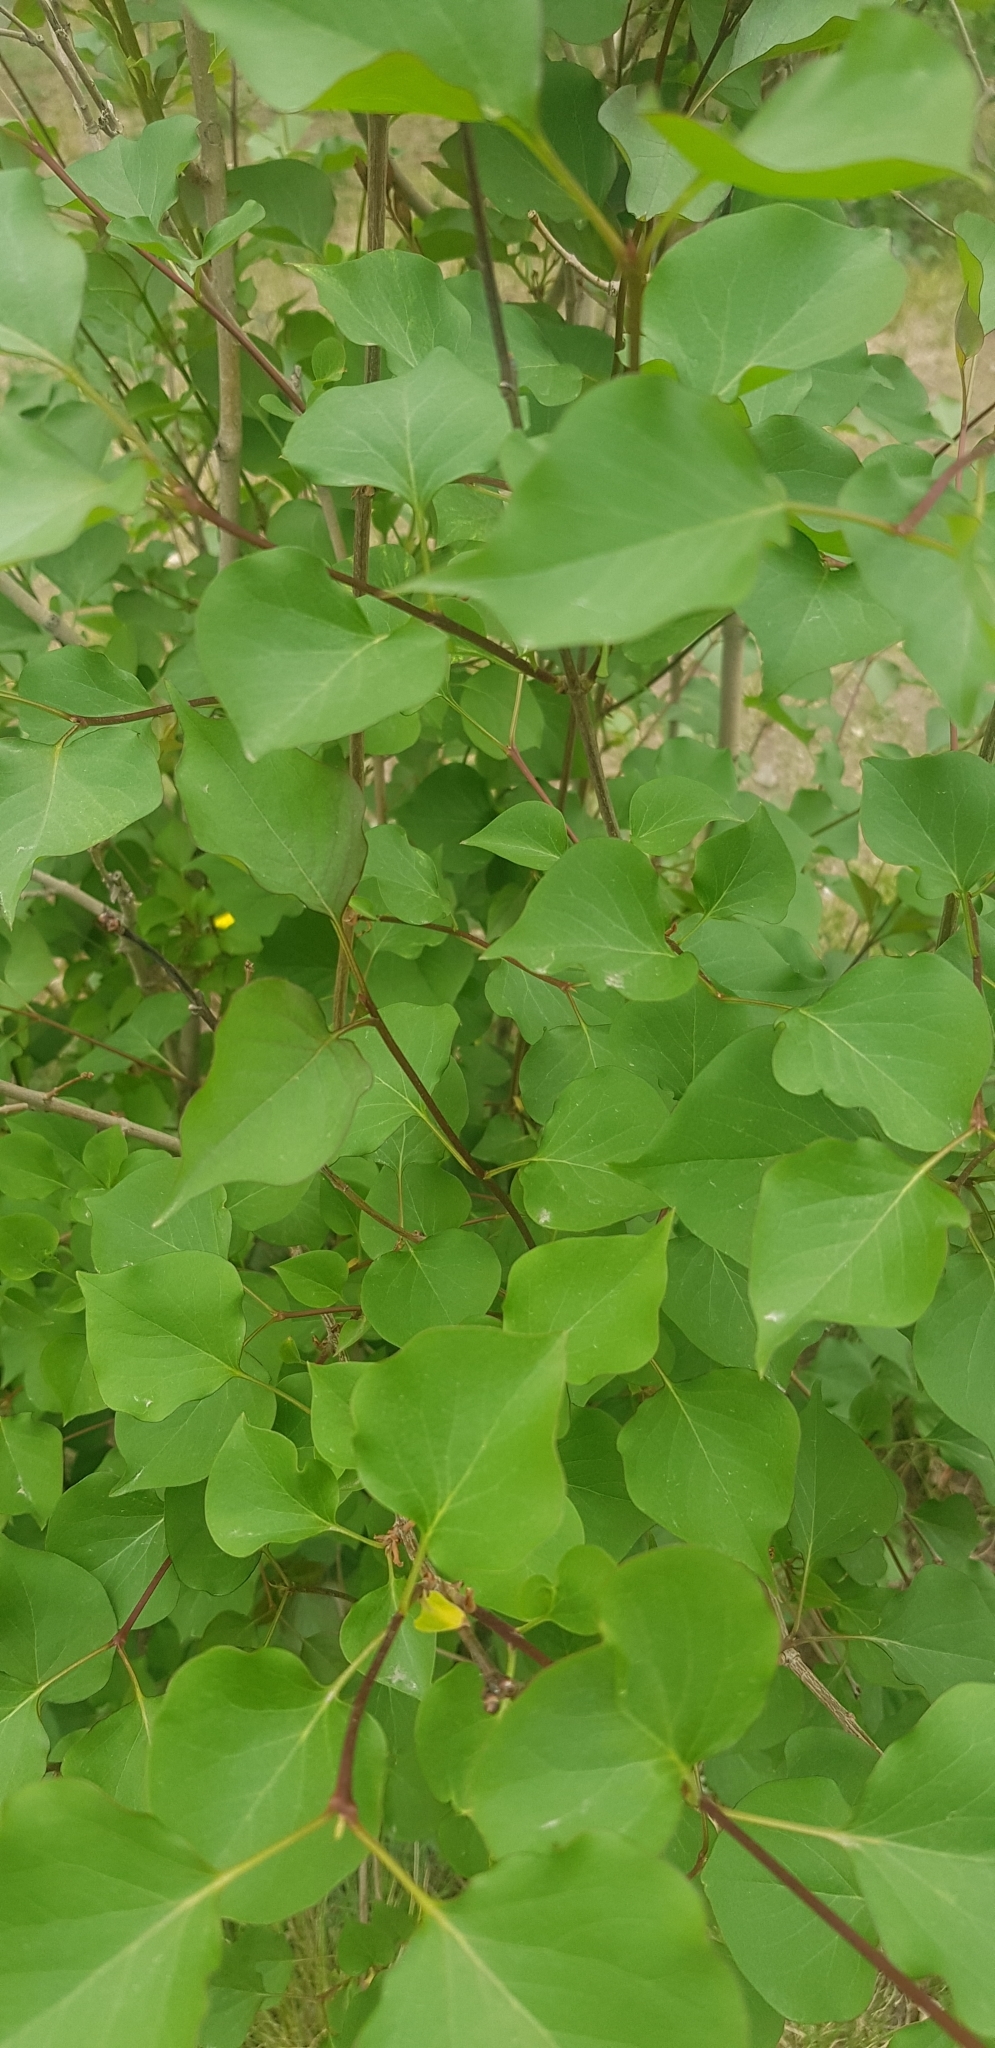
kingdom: Plantae
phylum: Tracheophyta
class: Magnoliopsida
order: Lamiales
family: Oleaceae
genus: Syringa
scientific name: Syringa vulgaris
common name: Common lilac
